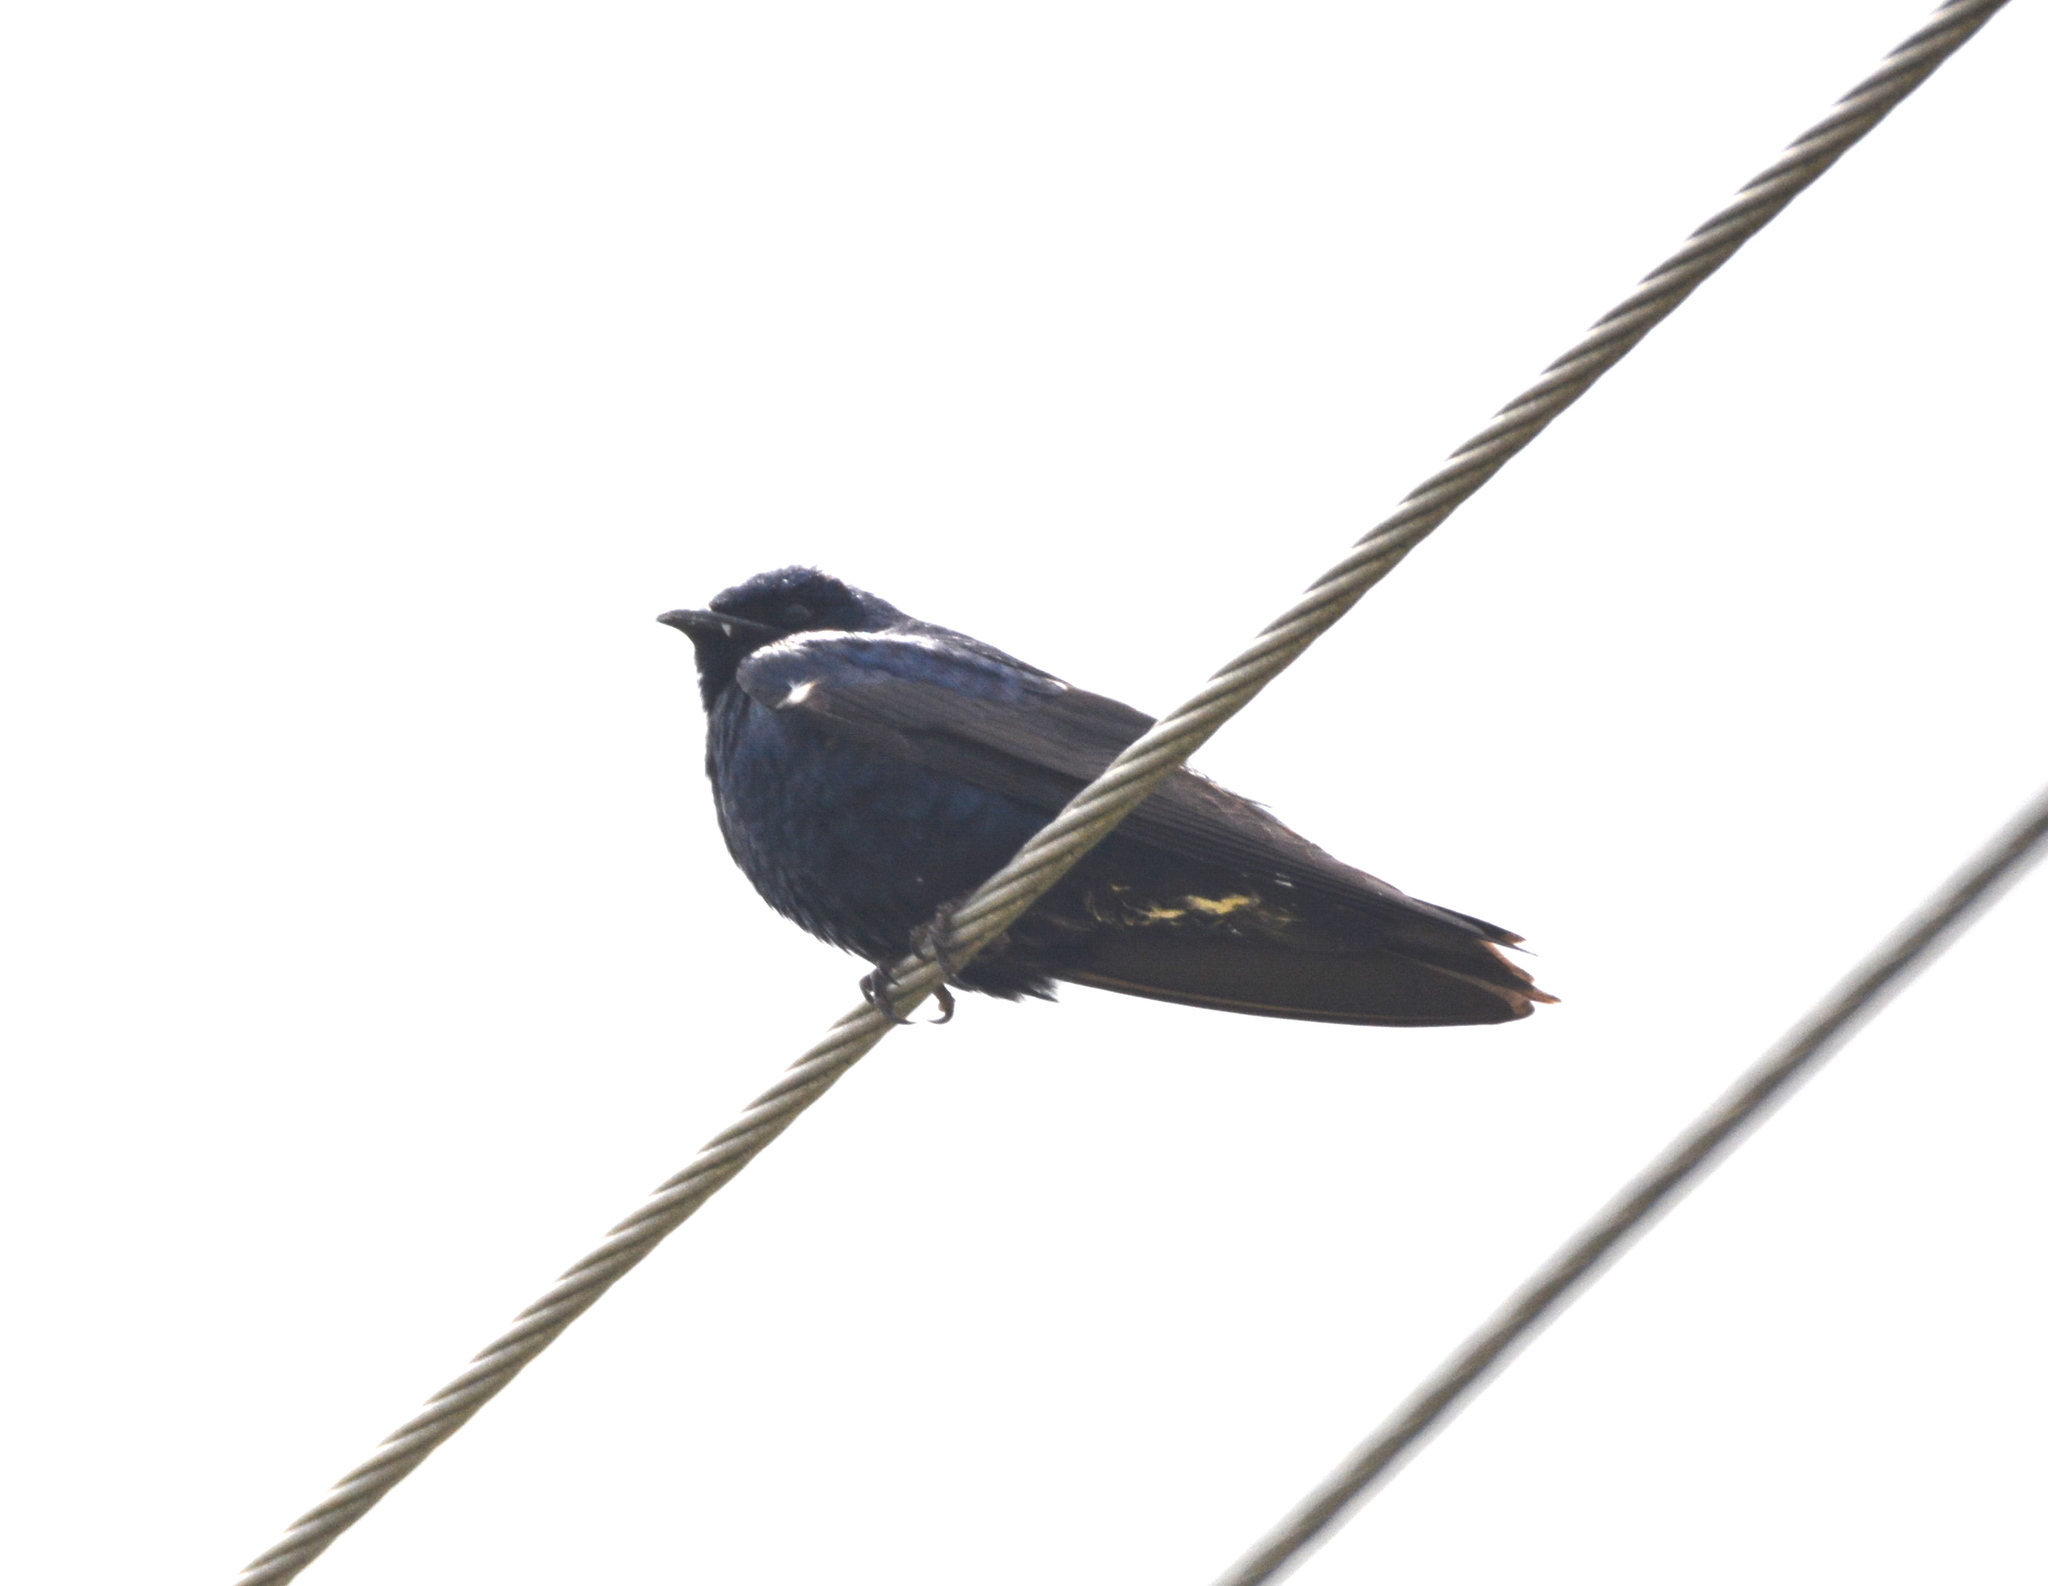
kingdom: Animalia
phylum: Chordata
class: Aves
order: Passeriformes
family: Hirundinidae
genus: Progne
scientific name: Progne subis
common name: Purple martin
